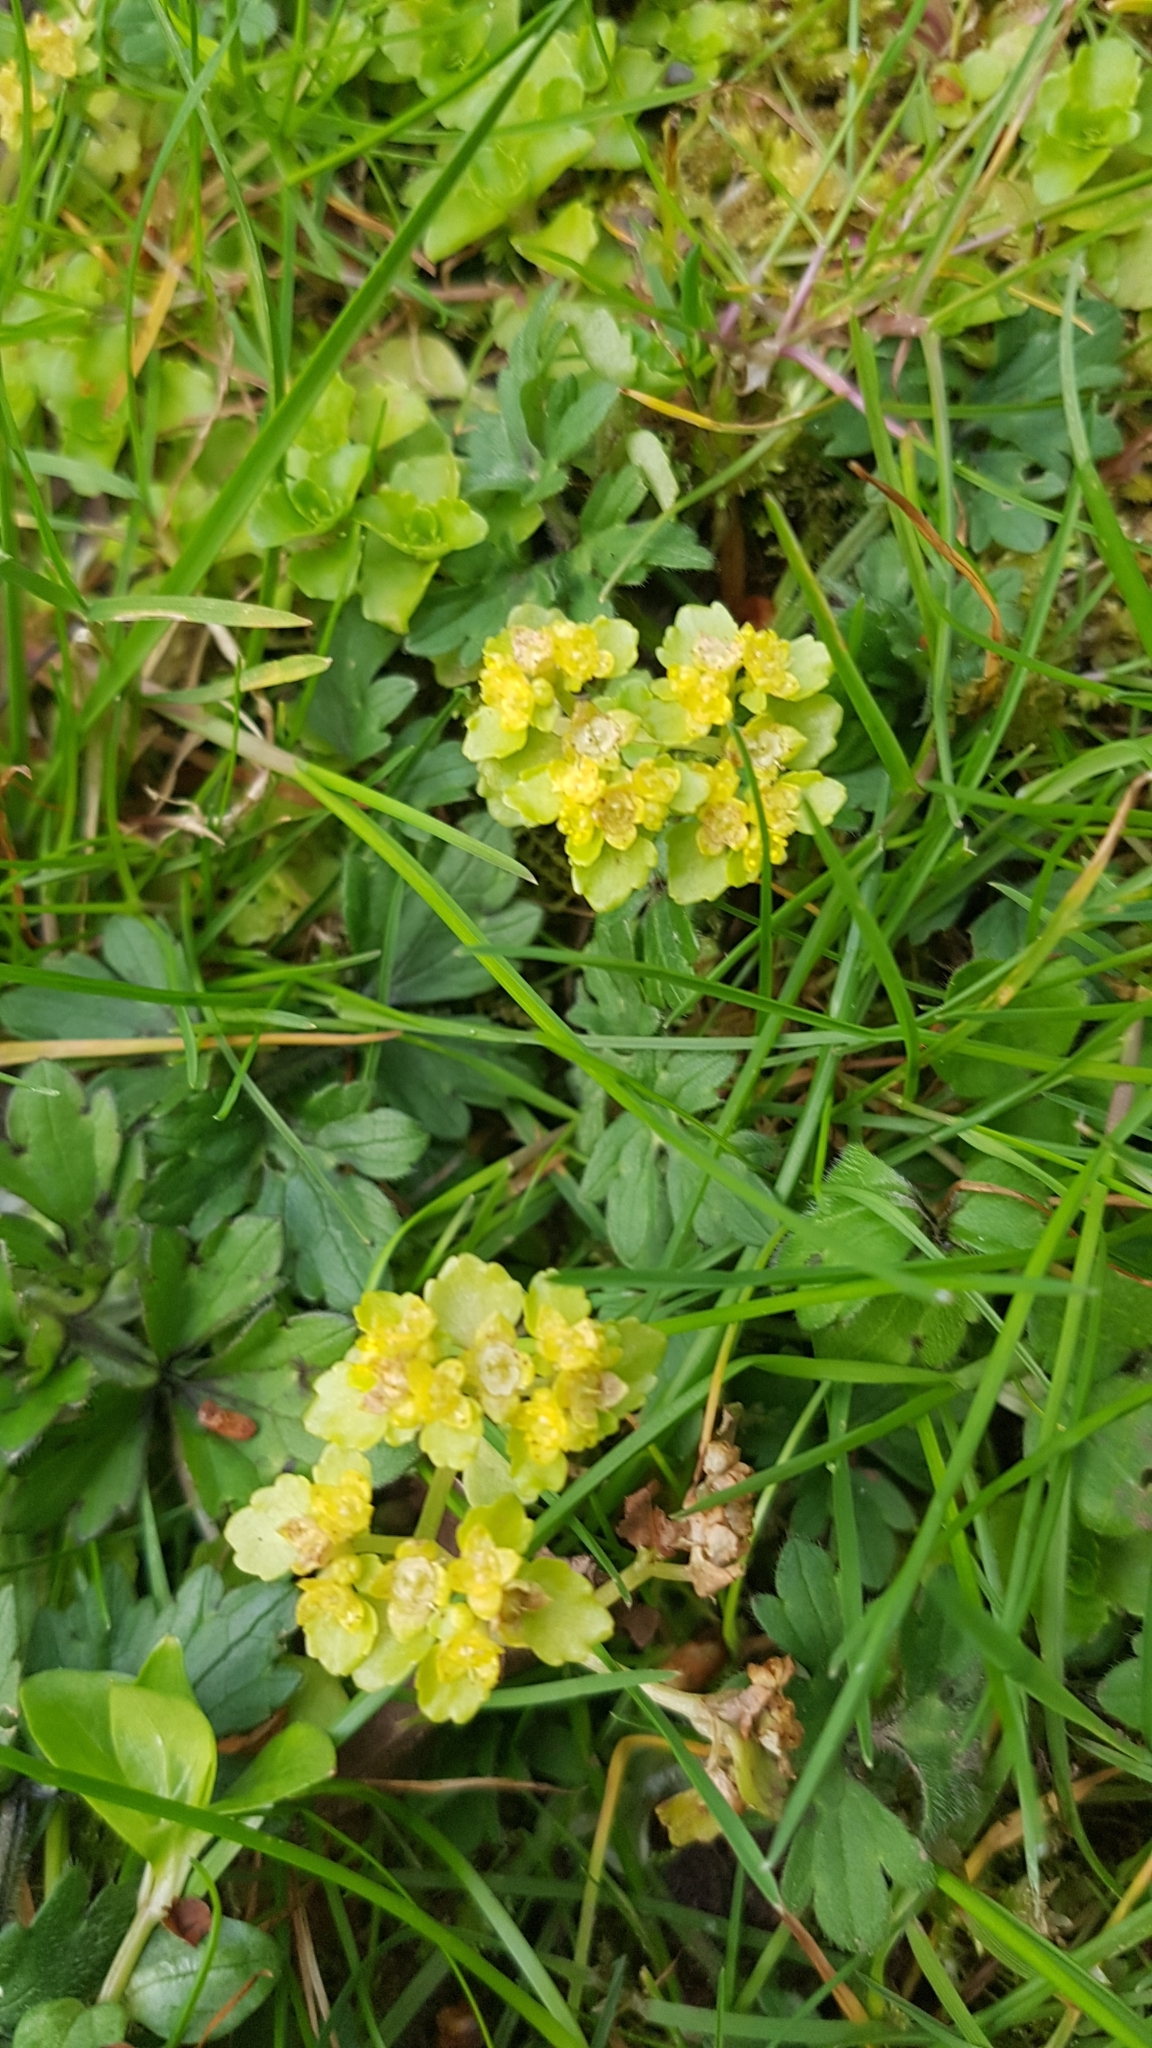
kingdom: Plantae
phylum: Tracheophyta
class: Magnoliopsida
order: Saxifragales
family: Saxifragaceae
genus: Chrysosplenium
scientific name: Chrysosplenium oppositifolium
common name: Opposite-leaved golden-saxifrage
